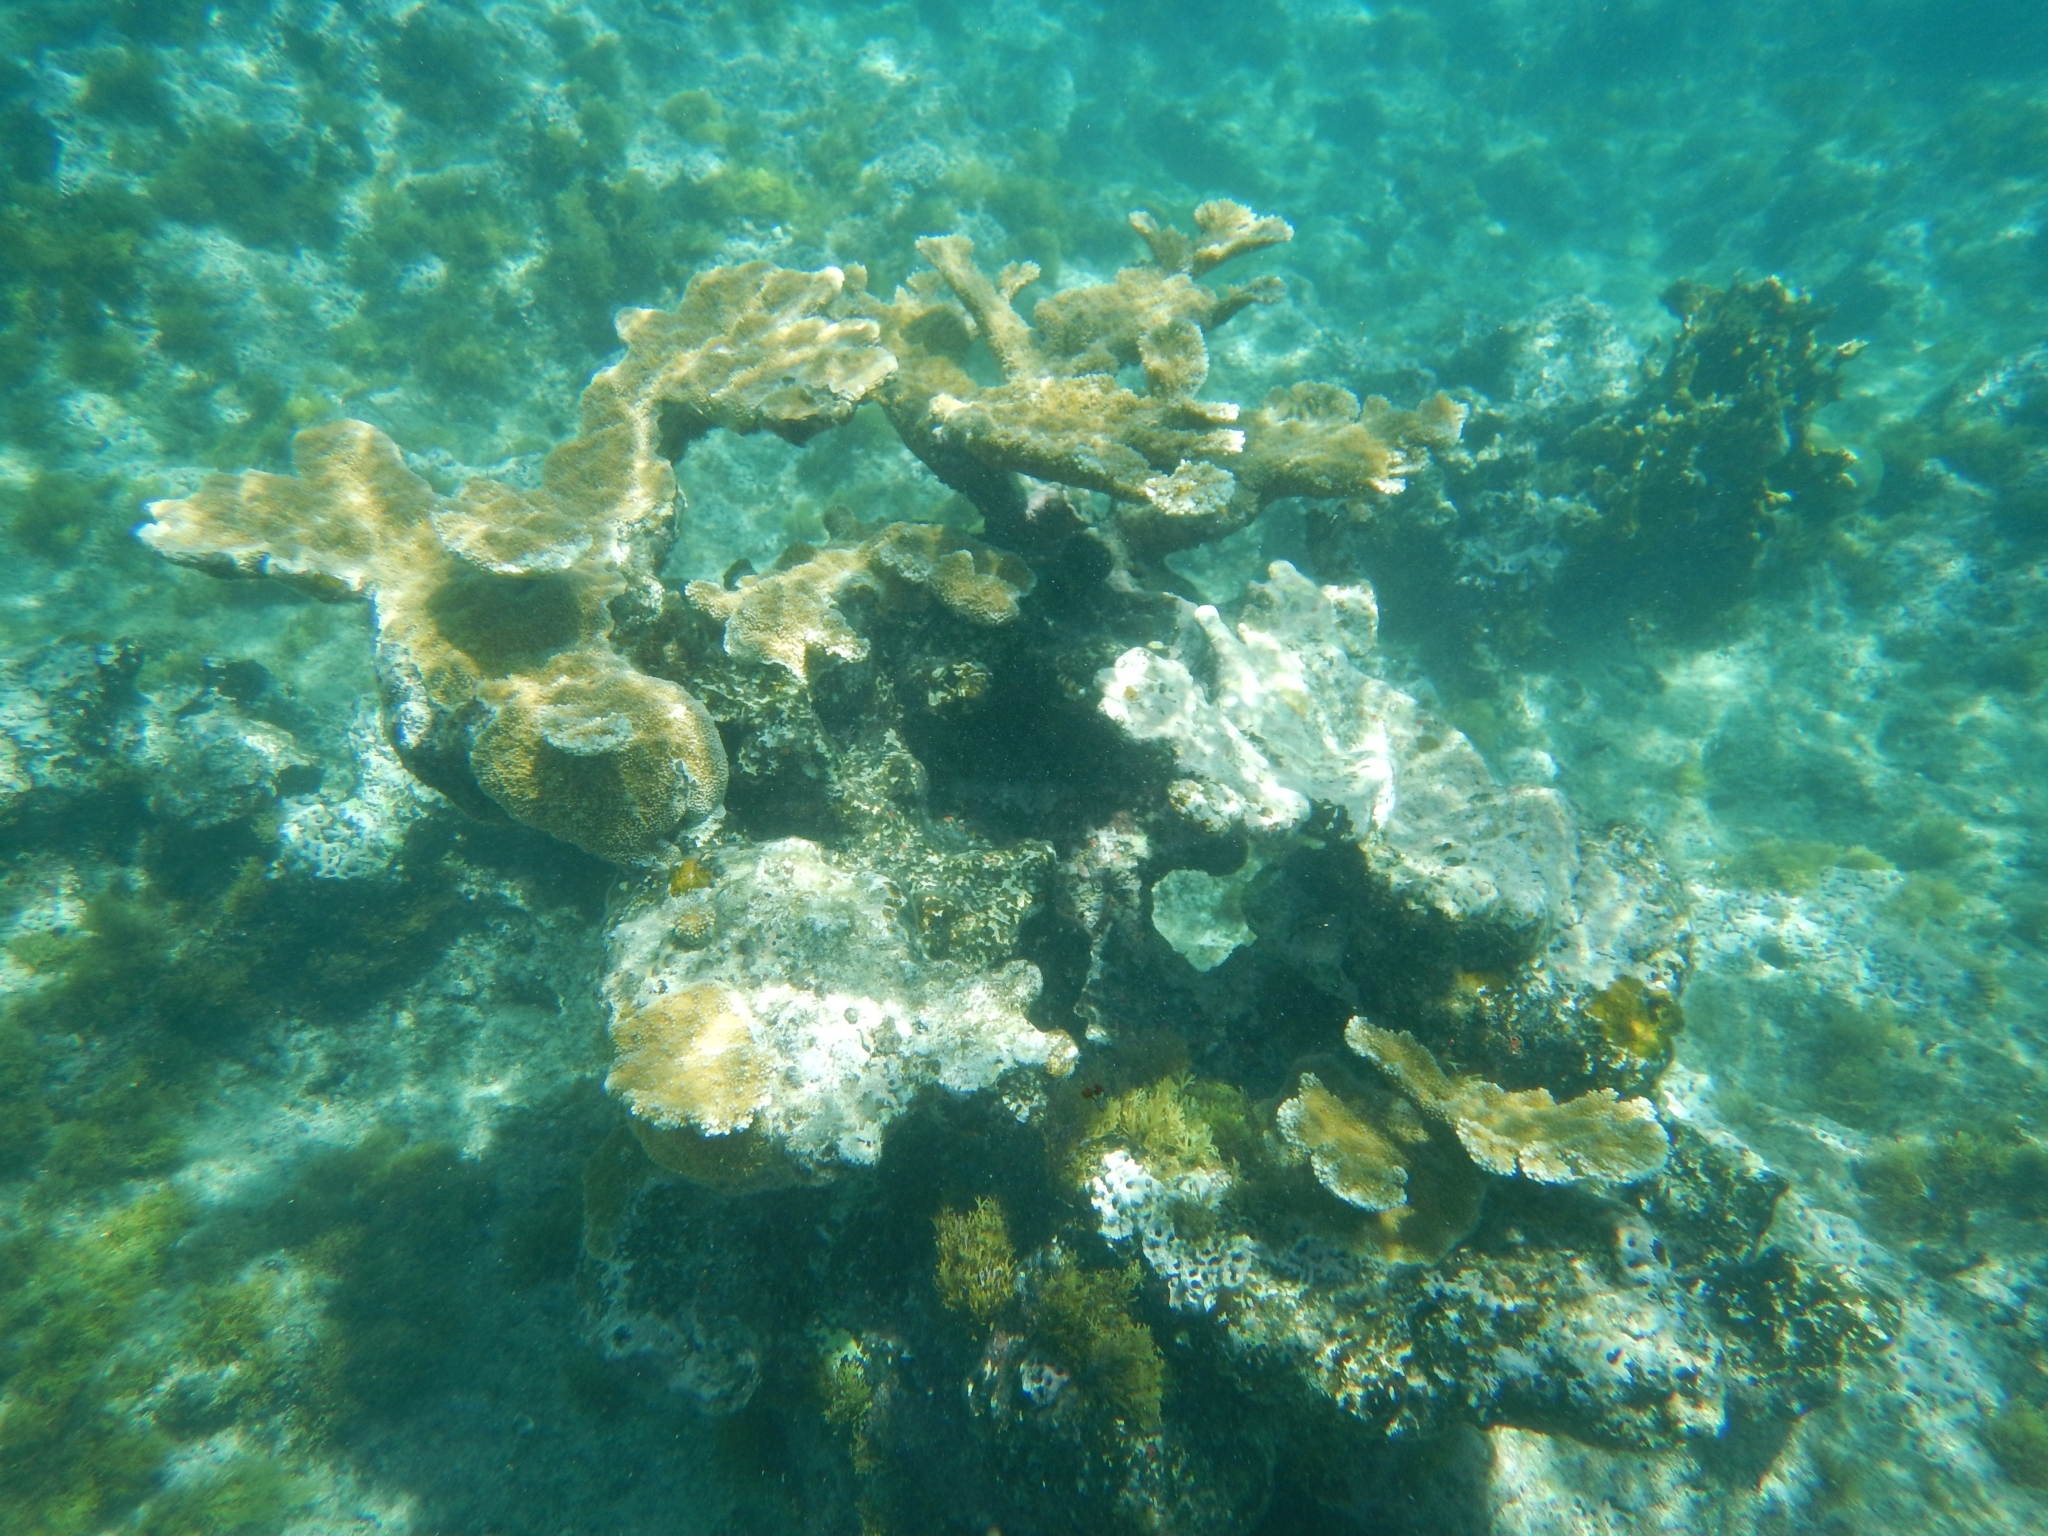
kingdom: Animalia
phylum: Cnidaria
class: Anthozoa
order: Scleractinia
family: Acroporidae
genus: Acropora
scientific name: Acropora palmata
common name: Elkhorn coral
